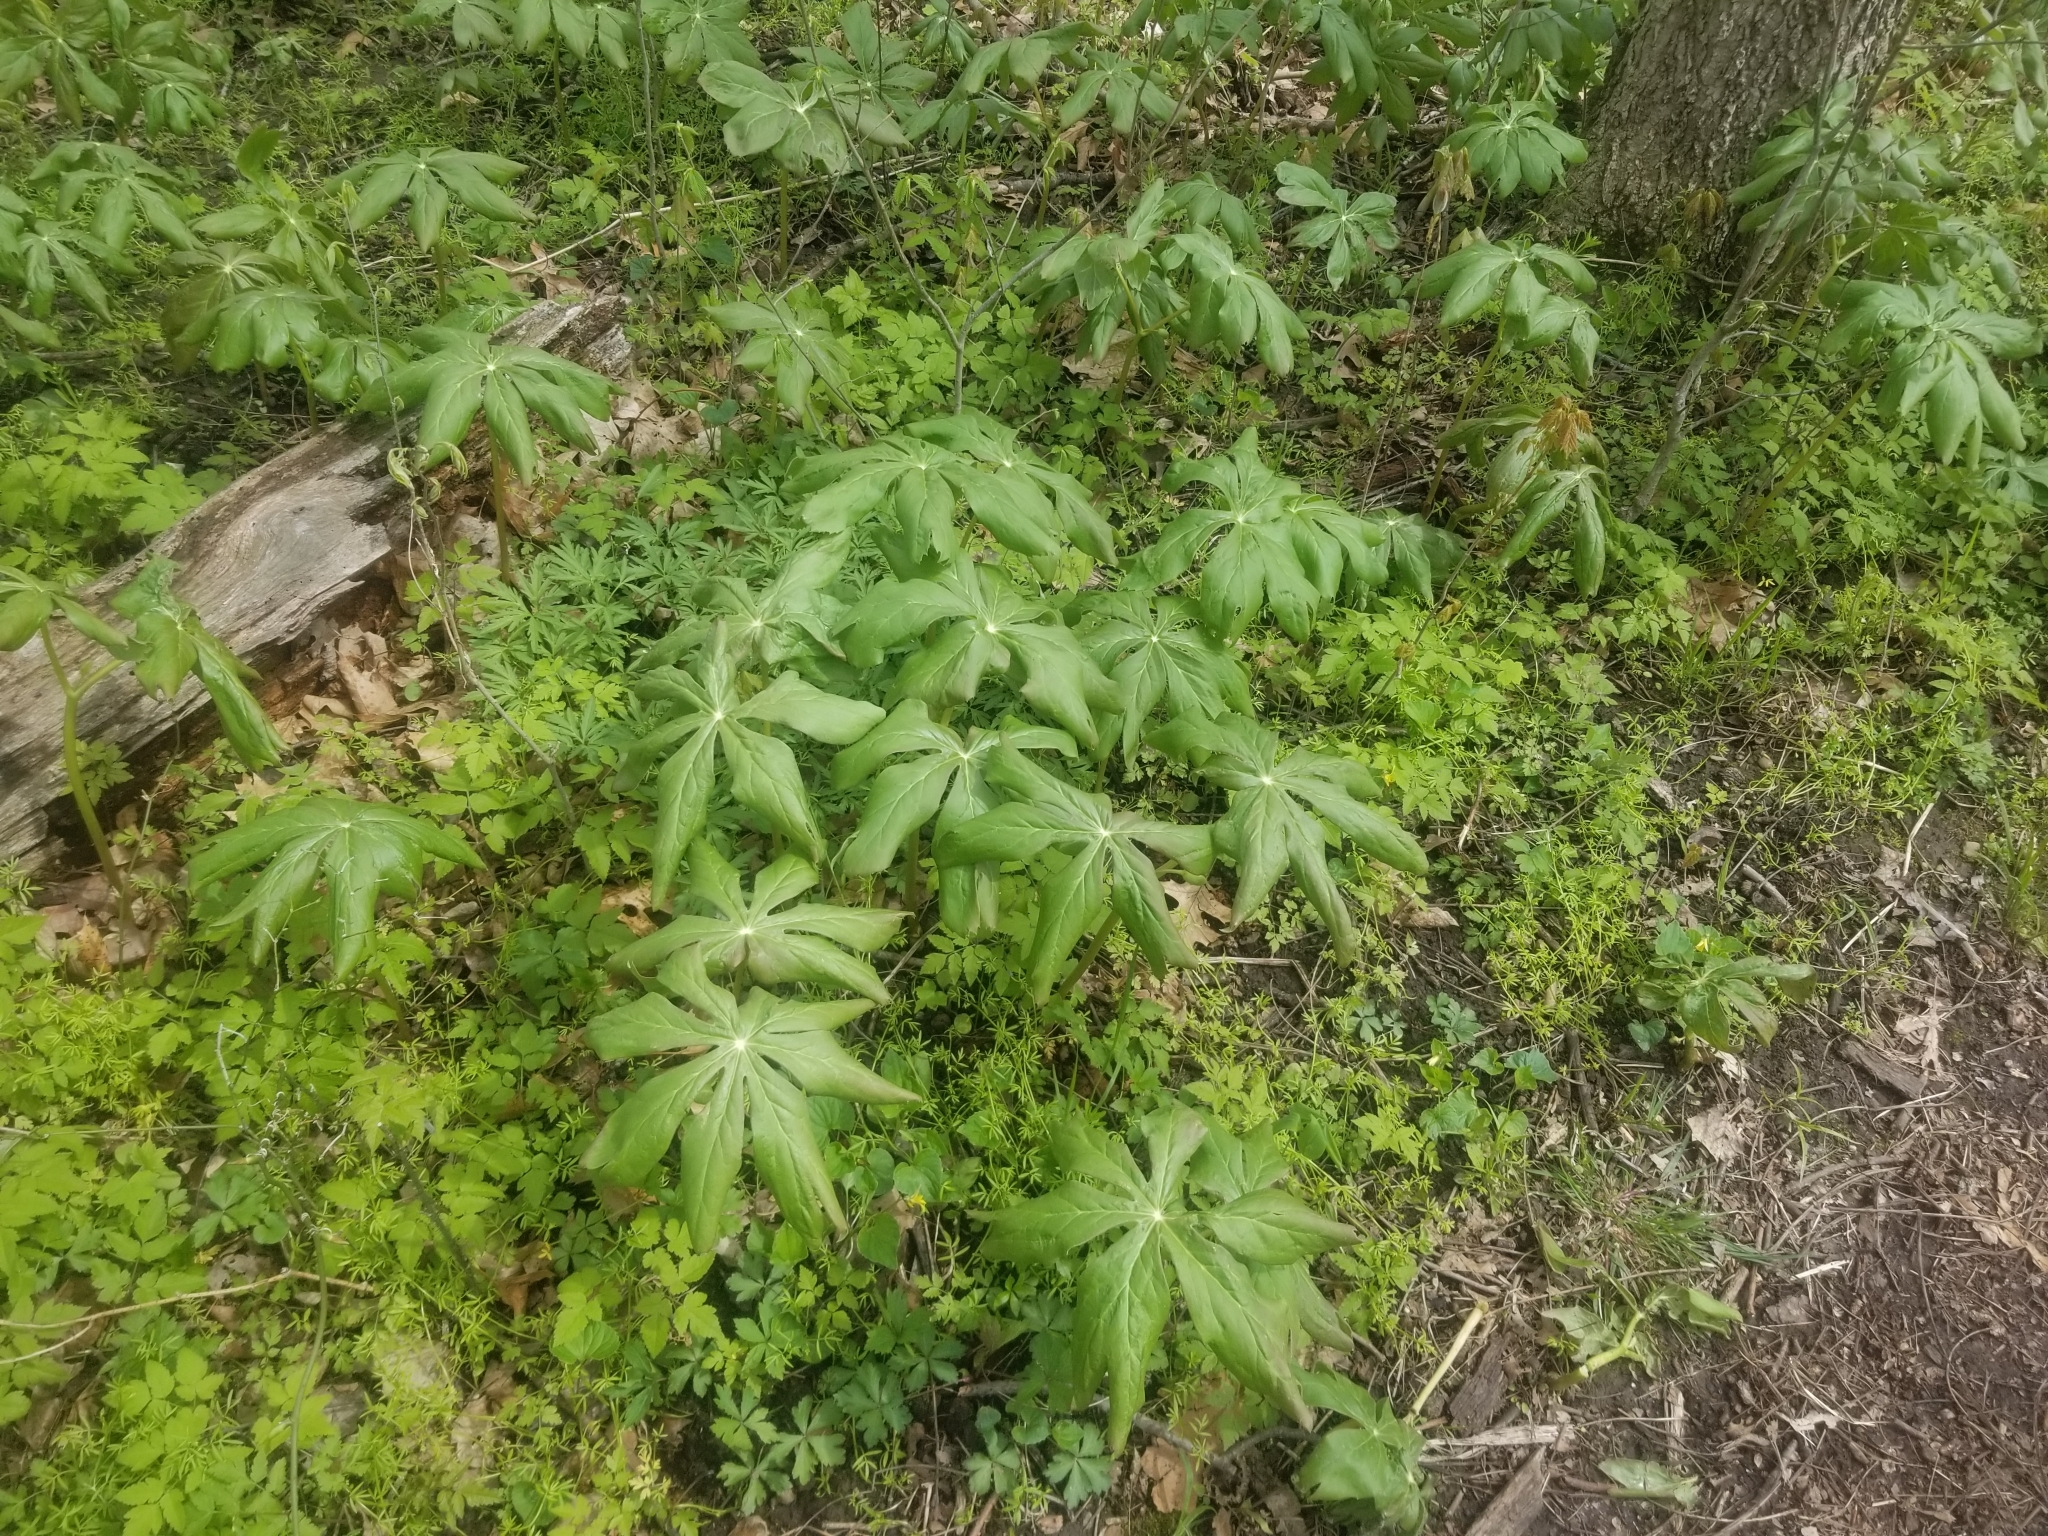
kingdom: Plantae
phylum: Tracheophyta
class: Magnoliopsida
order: Ranunculales
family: Berberidaceae
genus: Podophyllum
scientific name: Podophyllum peltatum
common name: Wild mandrake
